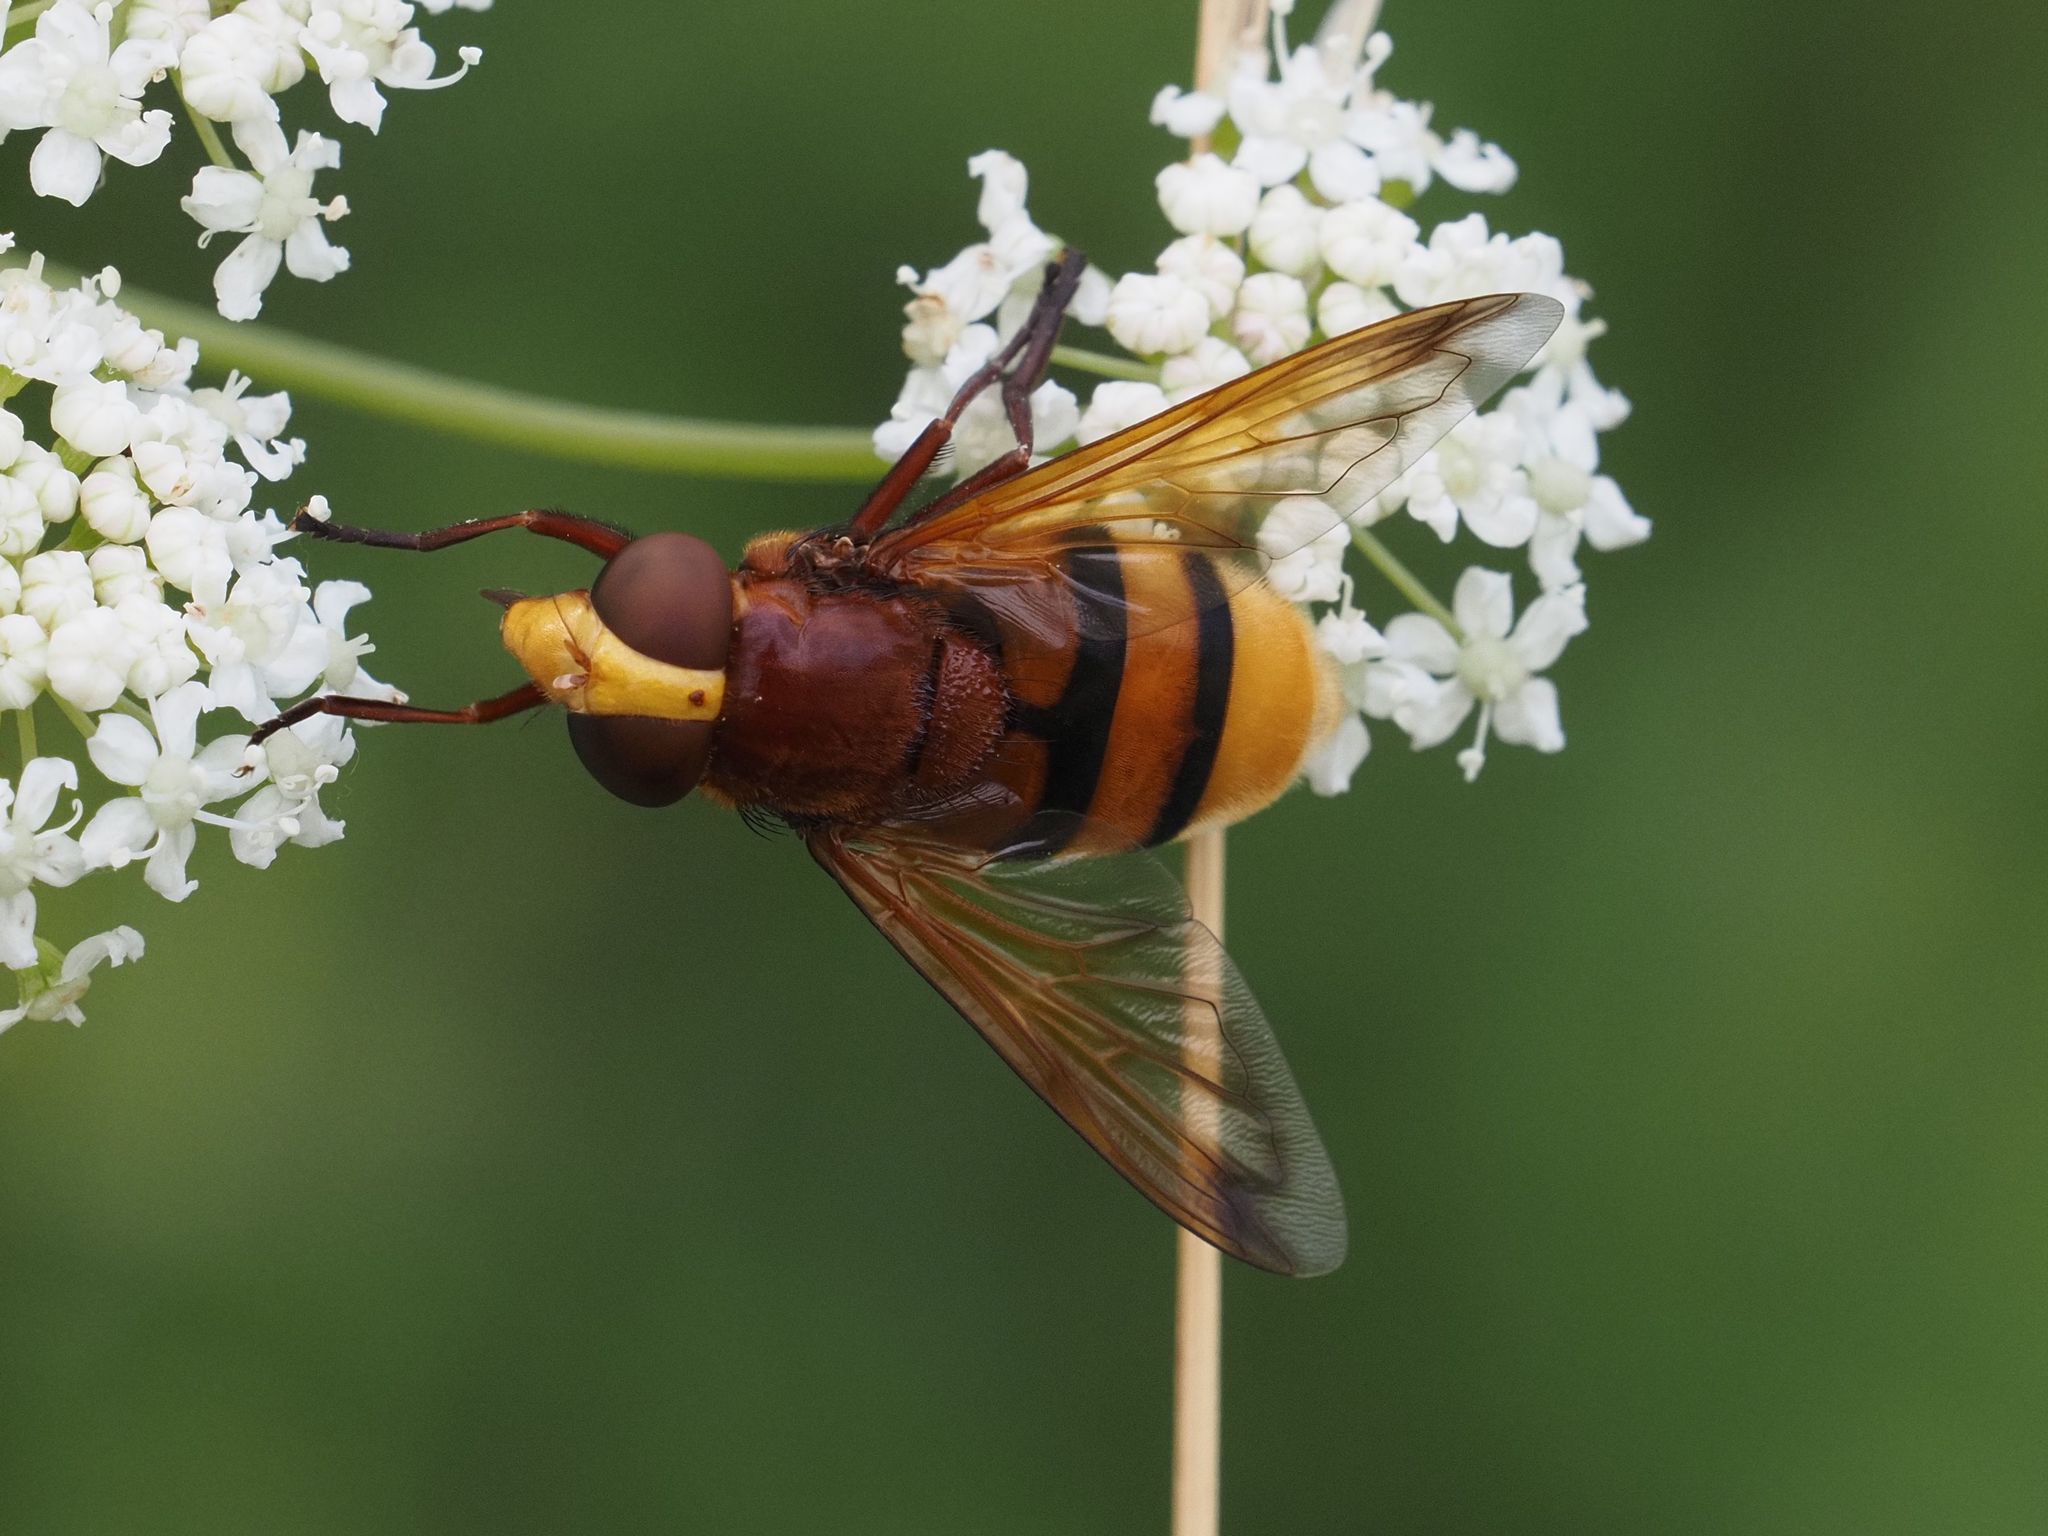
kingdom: Animalia
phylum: Arthropoda
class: Insecta
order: Diptera
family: Syrphidae
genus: Volucella
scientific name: Volucella zonaria
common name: Hornet hoverfly
